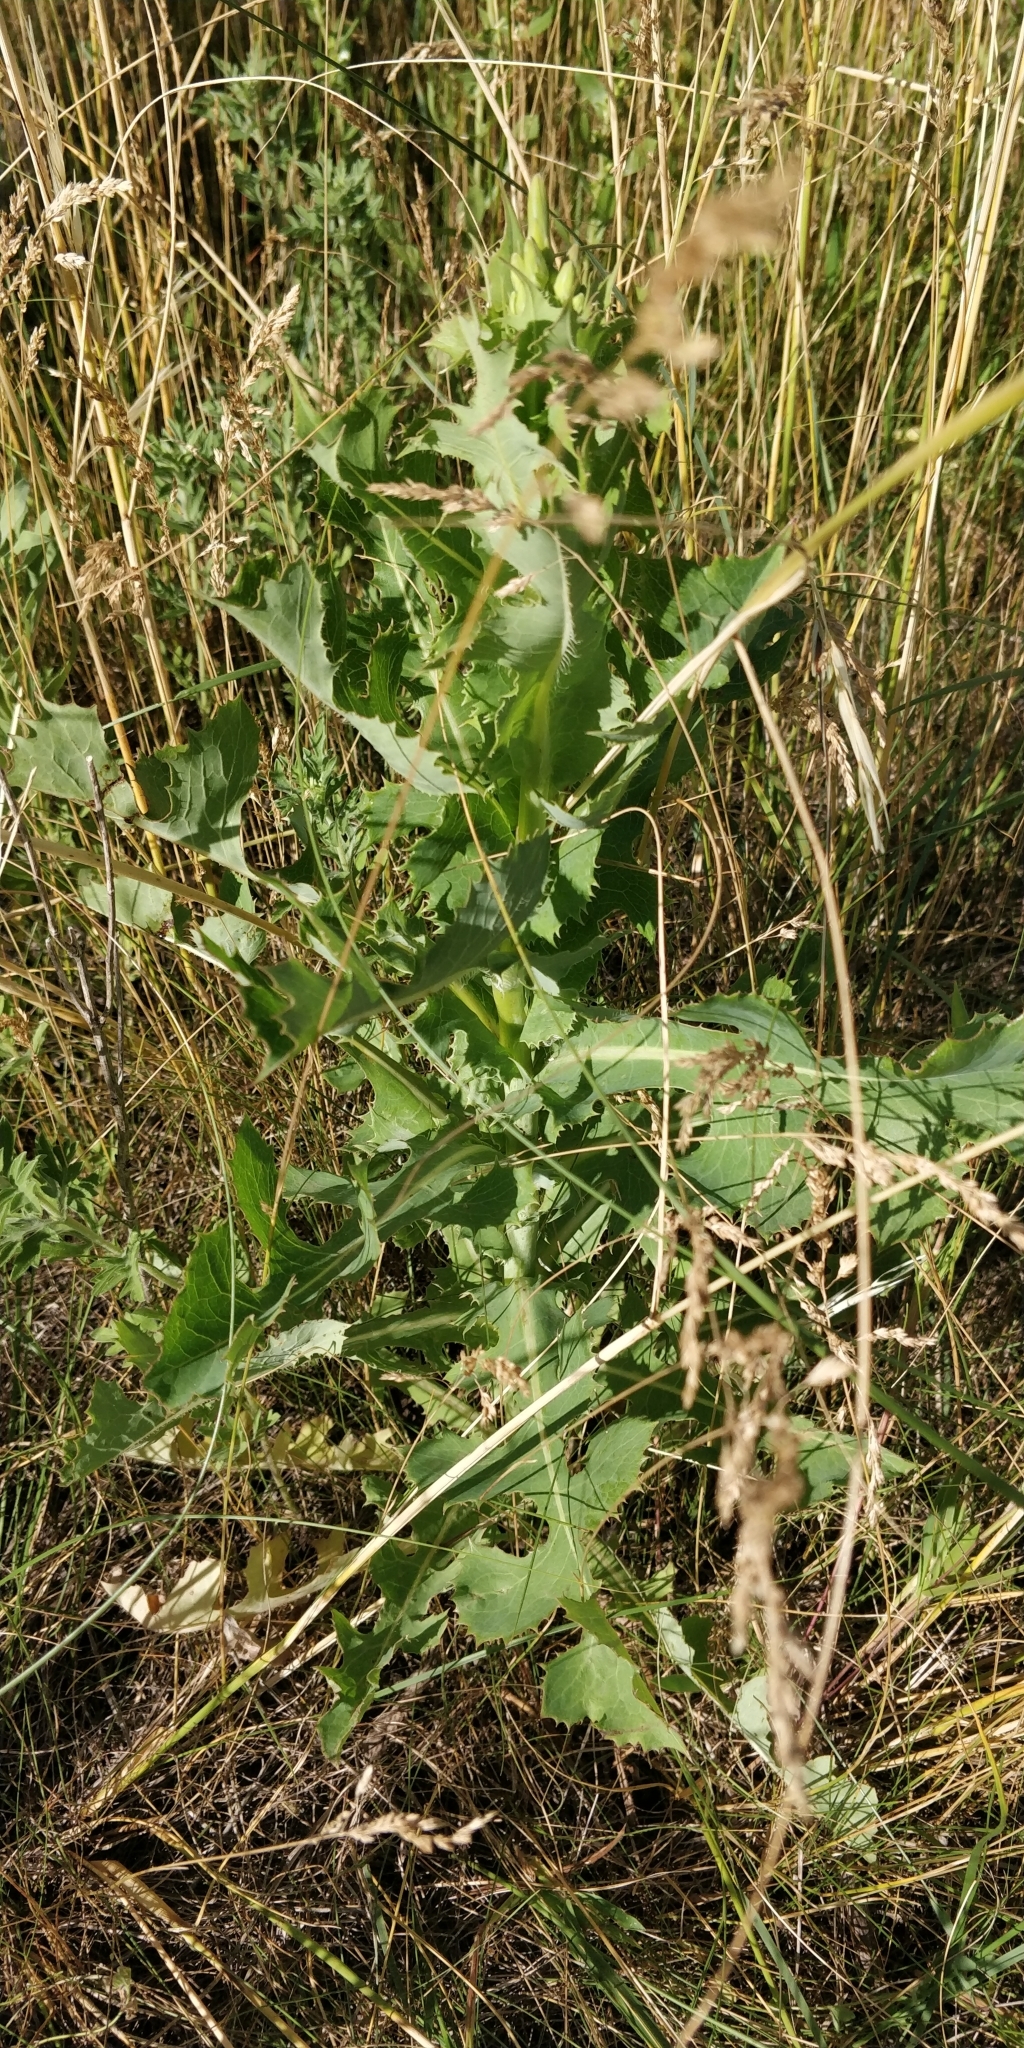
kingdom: Plantae
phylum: Tracheophyta
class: Magnoliopsida
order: Asterales
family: Asteraceae
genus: Lactuca
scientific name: Lactuca ludoviciana
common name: Louisiana lettuce
